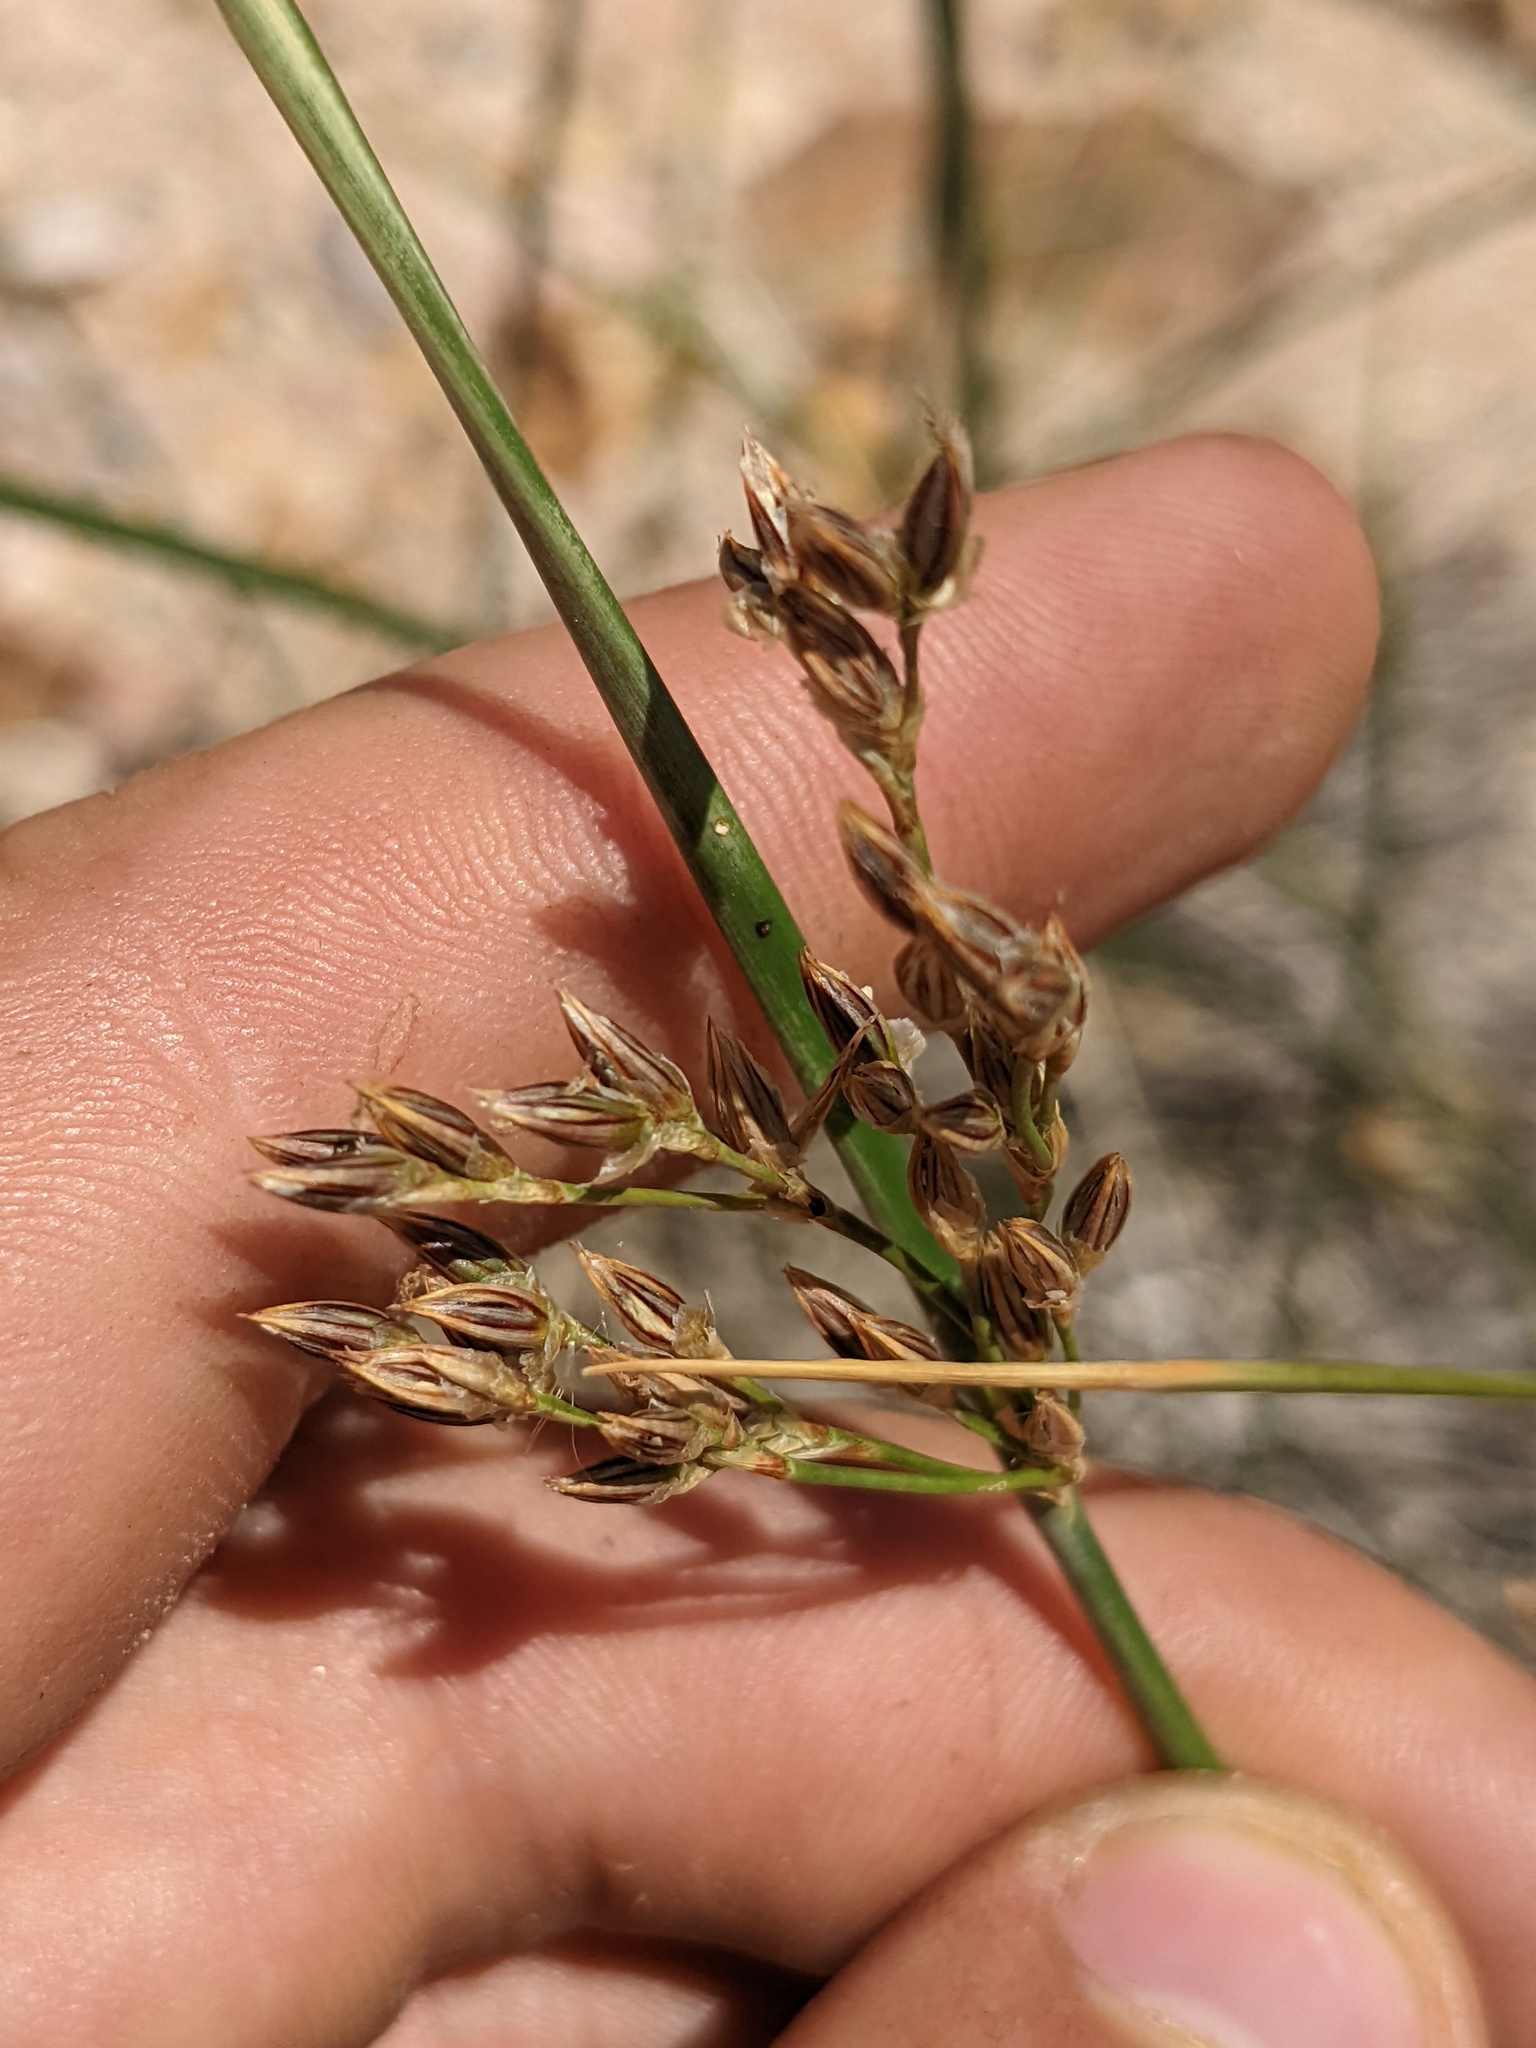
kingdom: Plantae
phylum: Tracheophyta
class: Liliopsida
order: Poales
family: Juncaceae
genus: Juncus
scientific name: Juncus balticus
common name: Baltic rush
